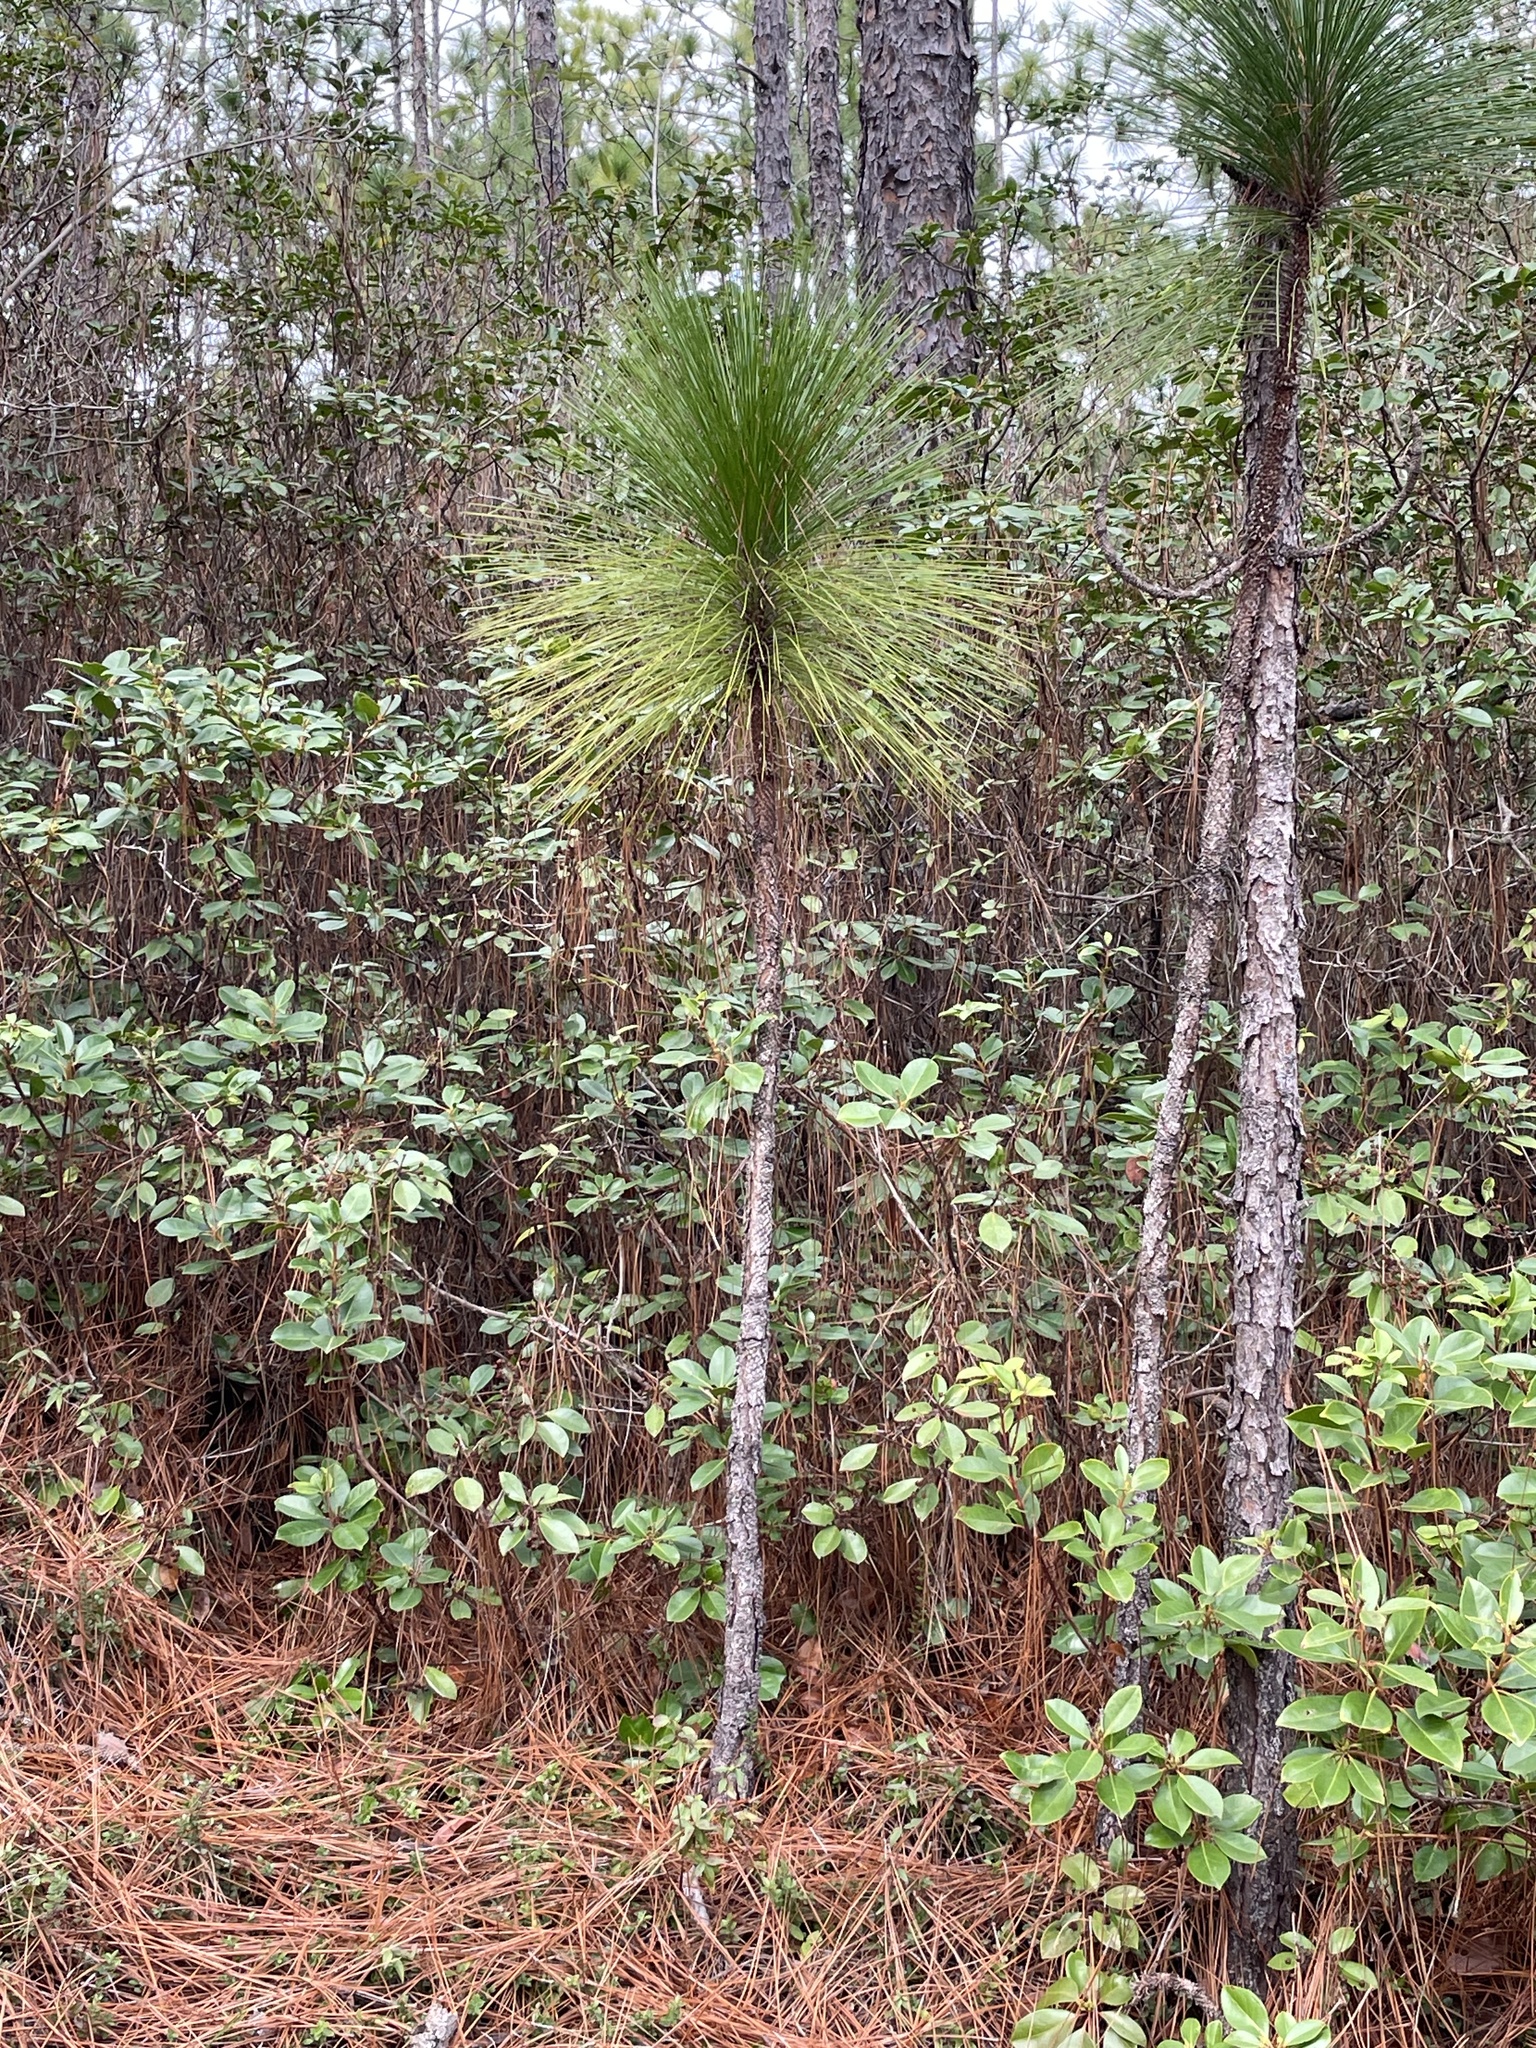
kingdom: Plantae
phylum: Tracheophyta
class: Pinopsida
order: Pinales
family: Pinaceae
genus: Pinus
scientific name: Pinus palustris
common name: Longleaf pine
